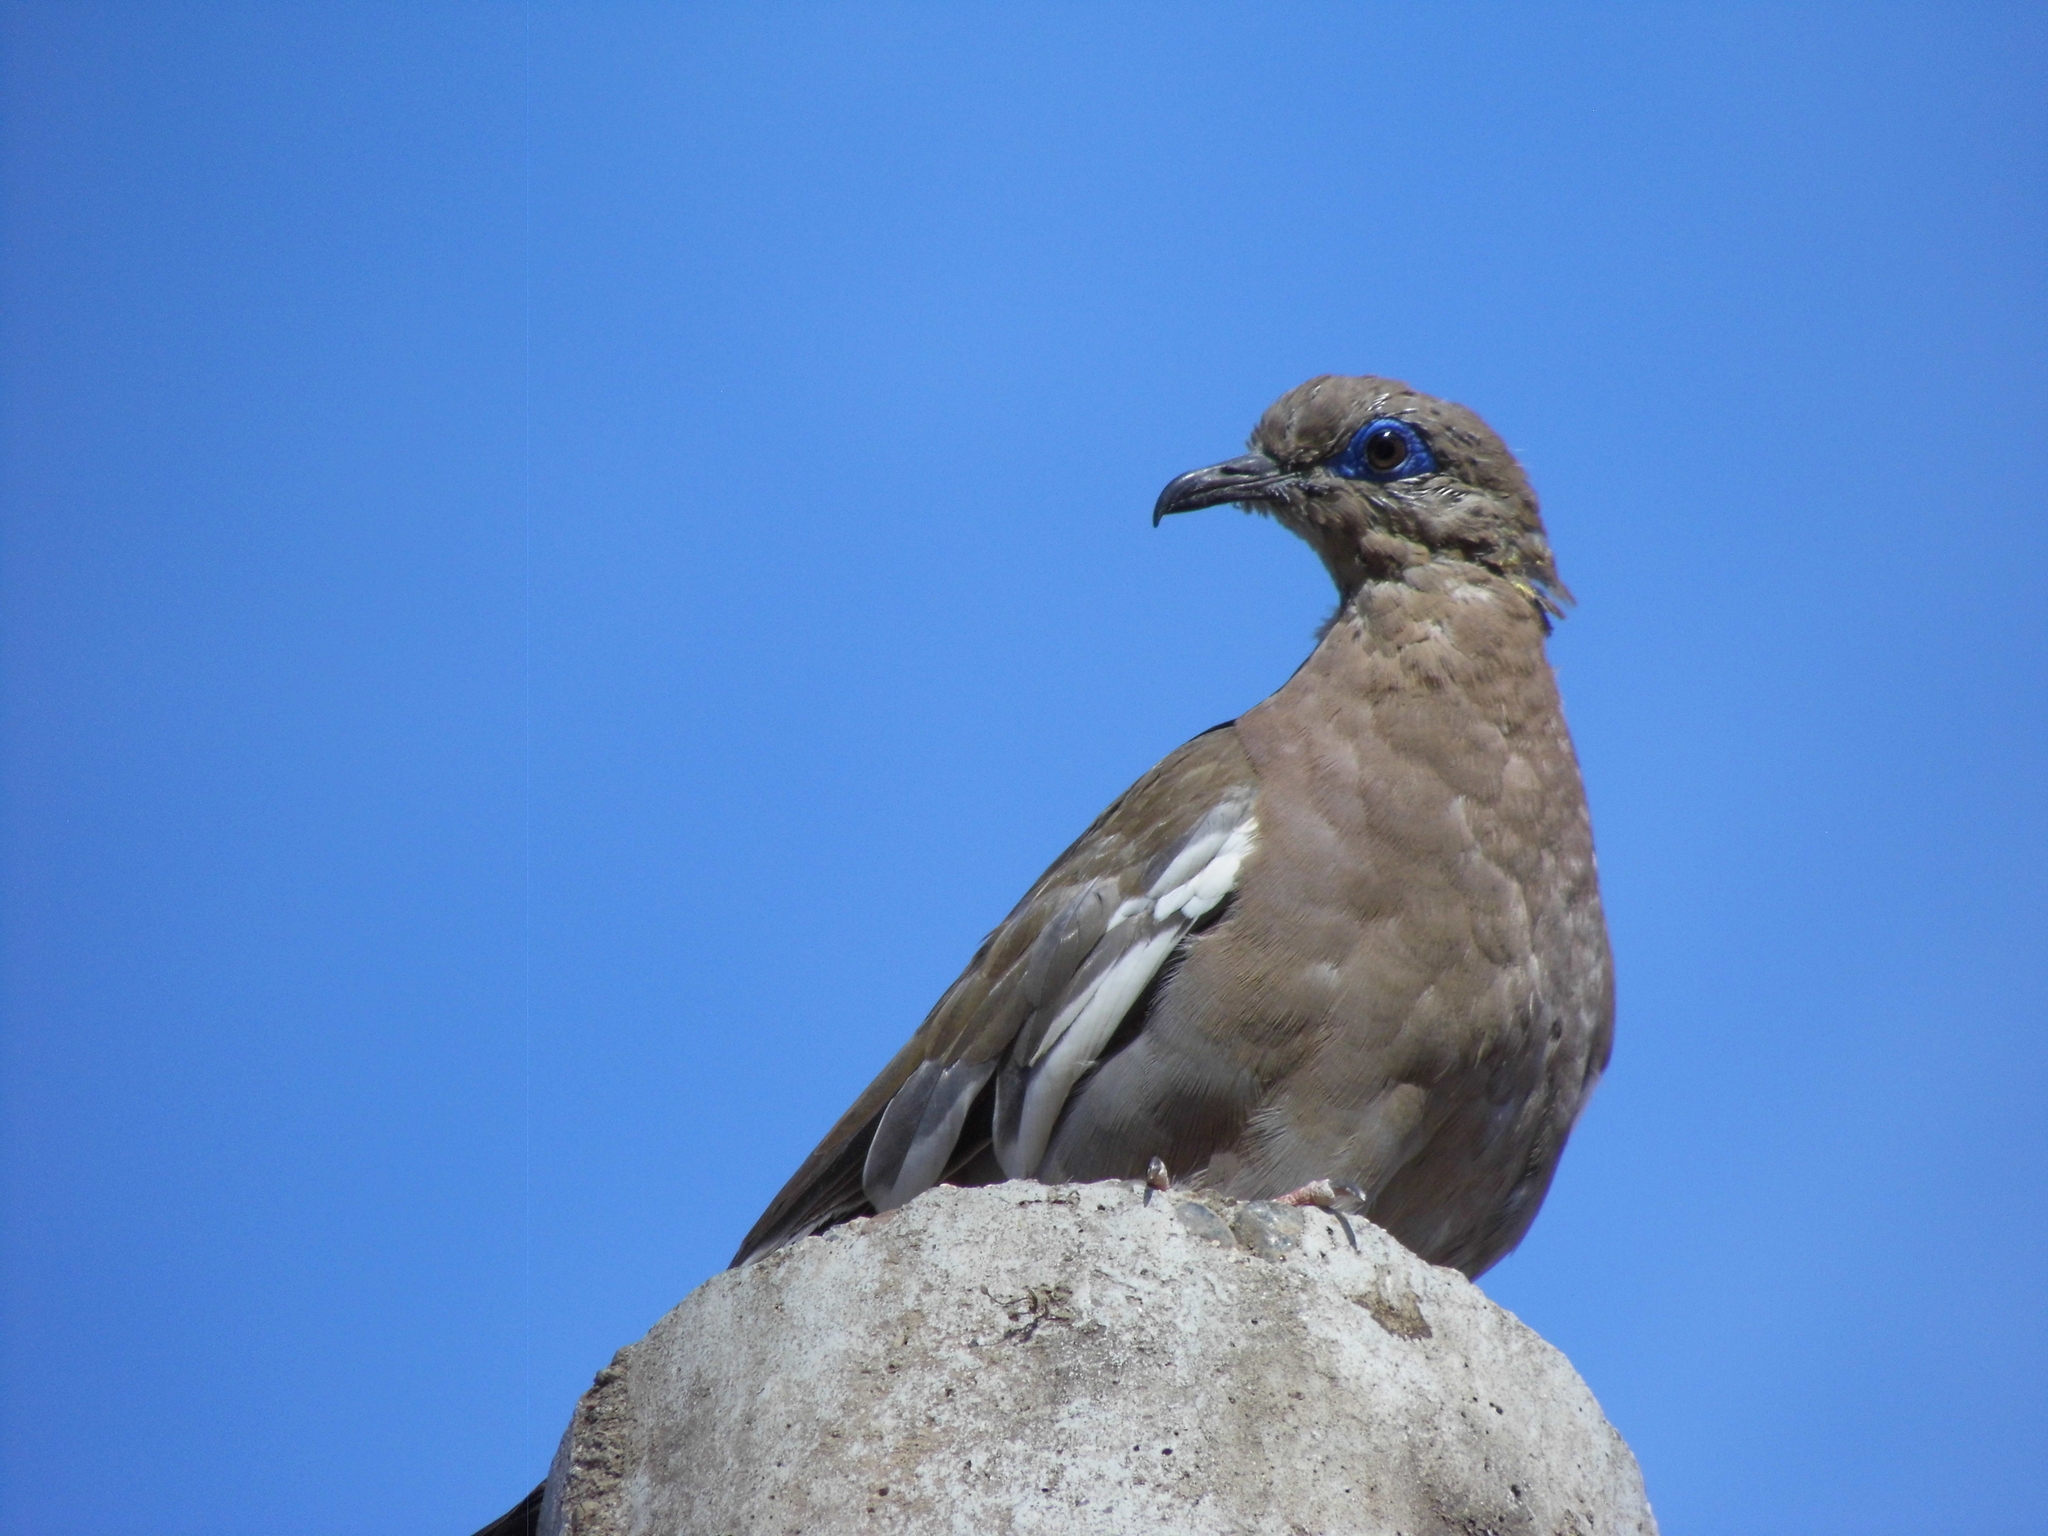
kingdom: Animalia
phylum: Chordata
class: Aves
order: Columbiformes
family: Columbidae
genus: Zenaida
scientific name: Zenaida meloda
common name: West peruvian dove
